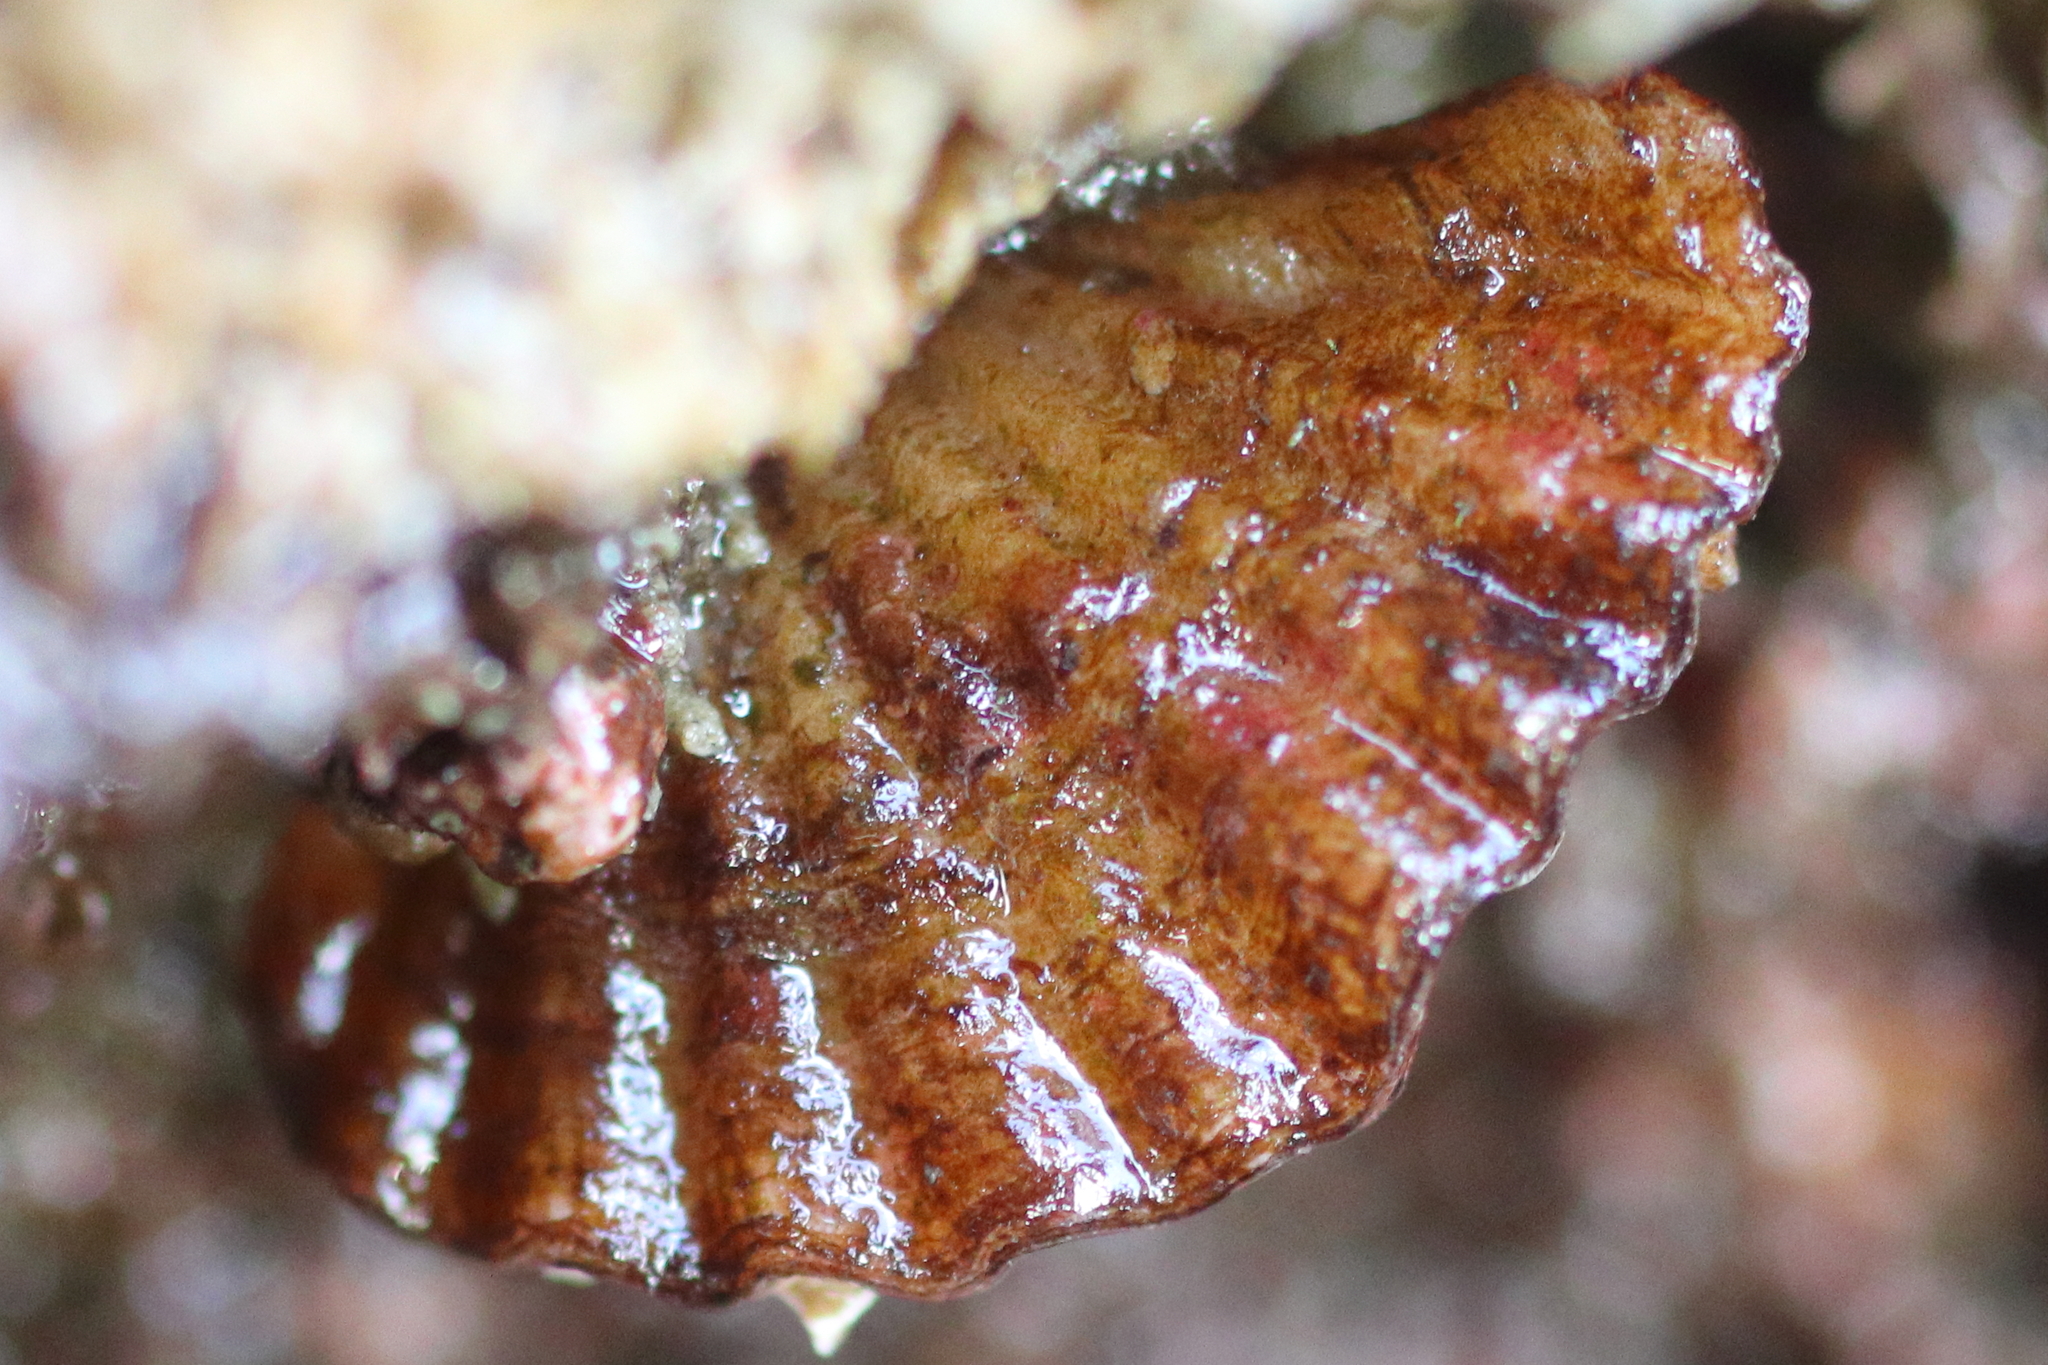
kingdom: Animalia
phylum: Brachiopoda
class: Rhynchonellata
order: Terebratulida
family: Terebrataliidae
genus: Terebratalia
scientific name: Terebratalia transversa
